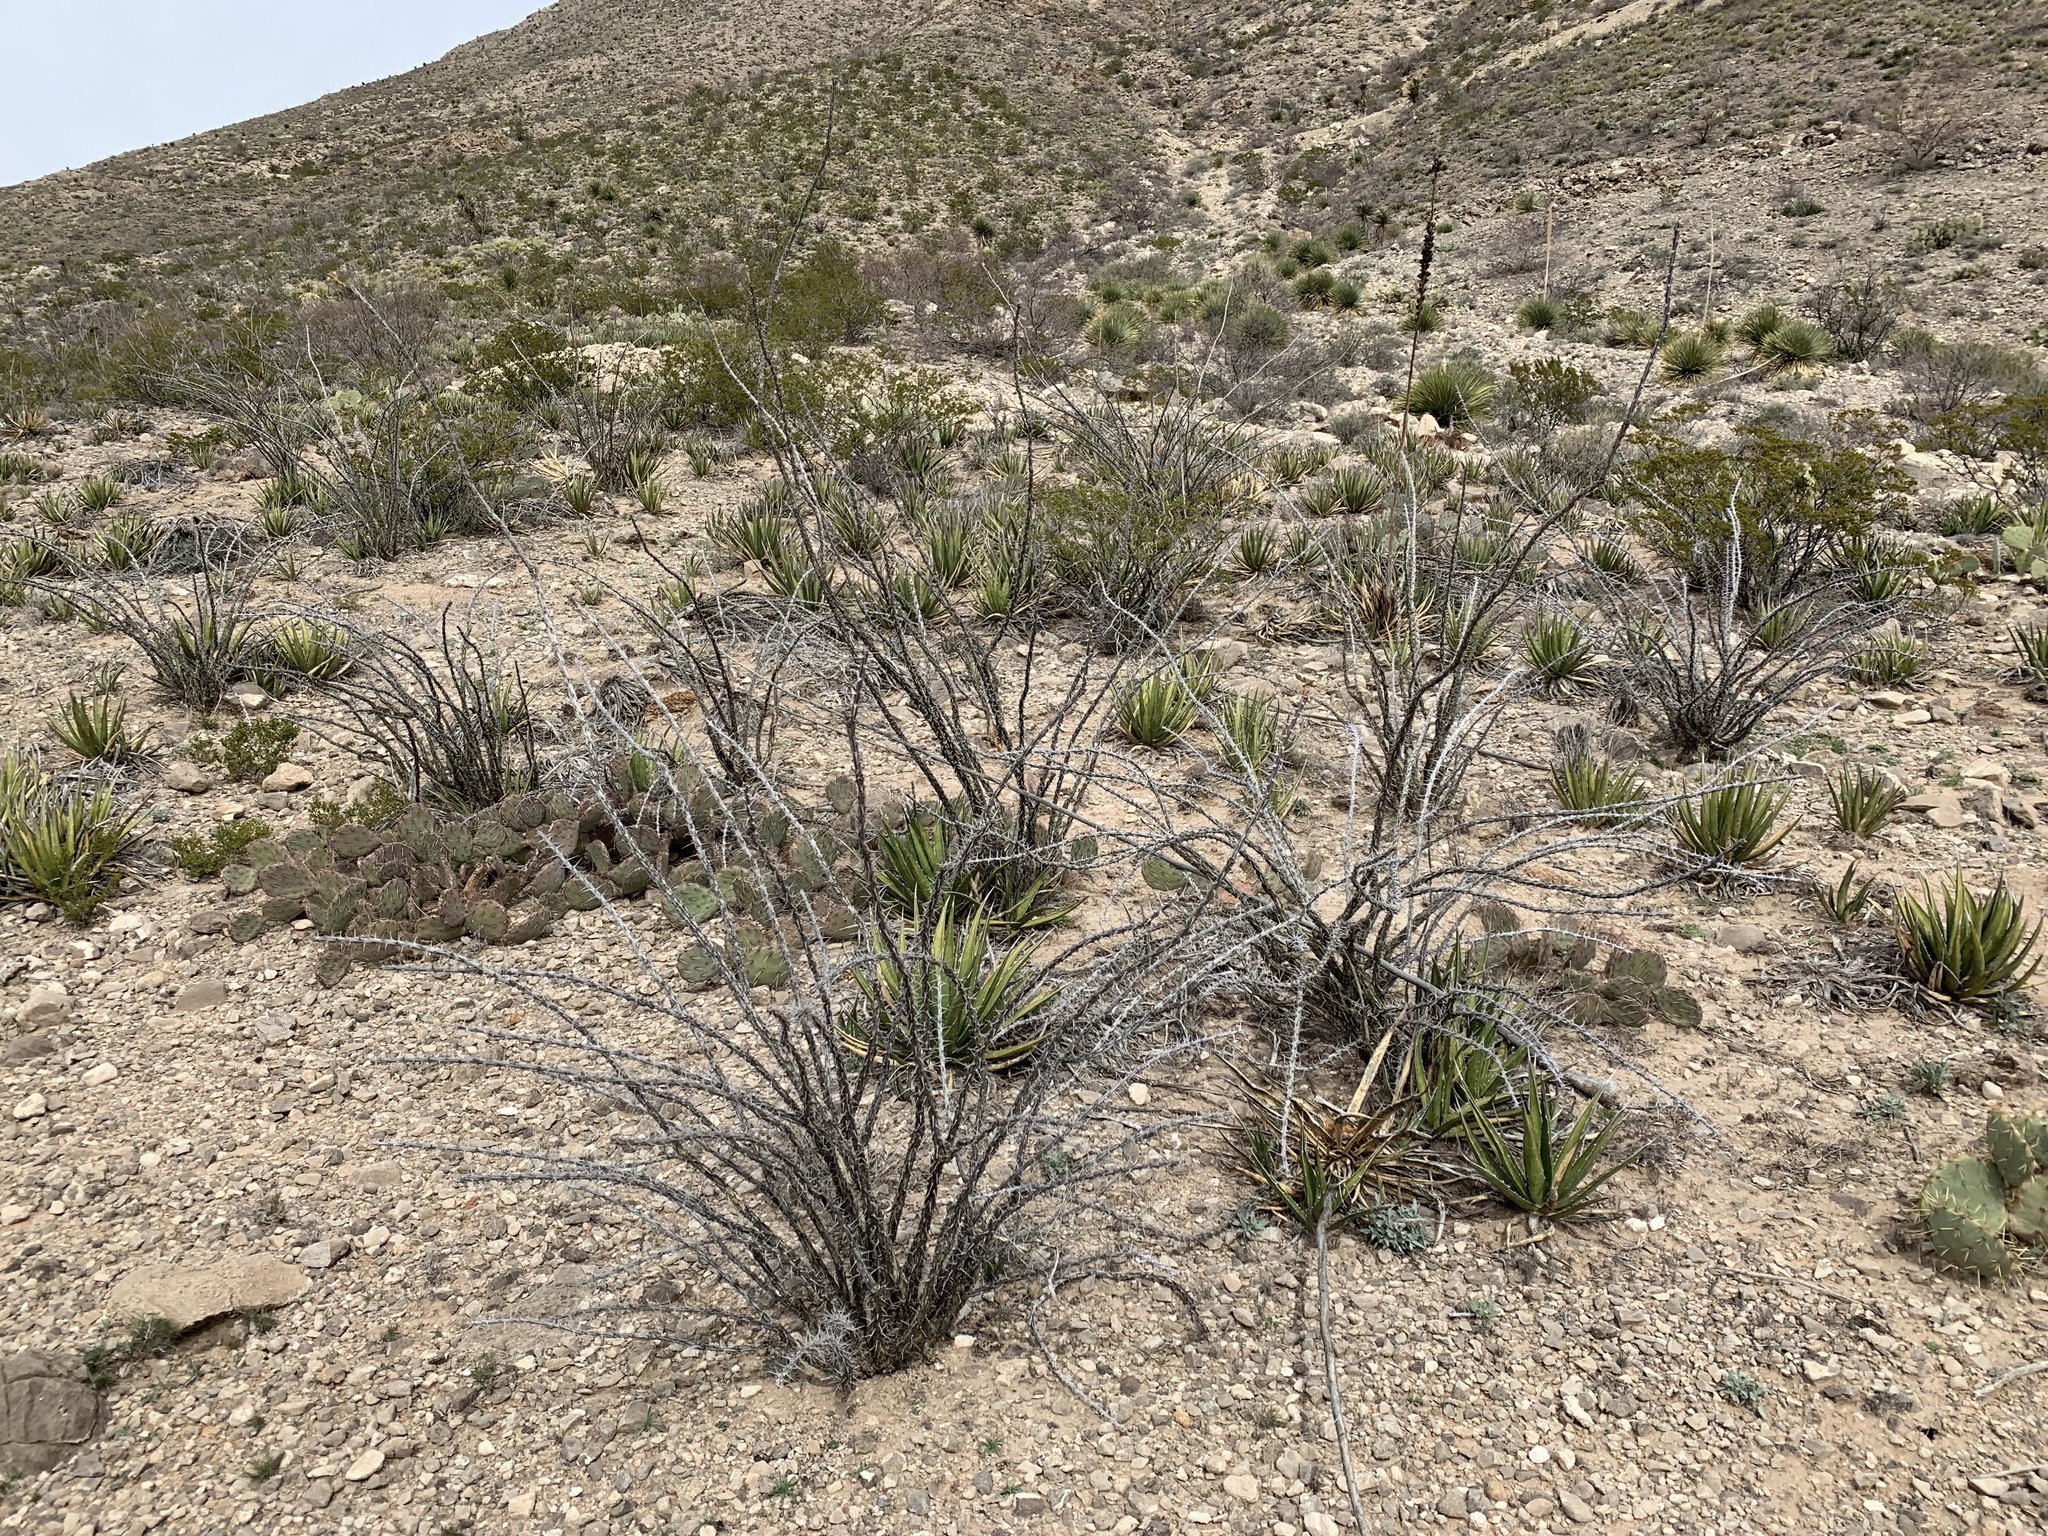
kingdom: Plantae
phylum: Tracheophyta
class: Magnoliopsida
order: Ericales
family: Fouquieriaceae
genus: Fouquieria
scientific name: Fouquieria splendens
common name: Vine-cactus
